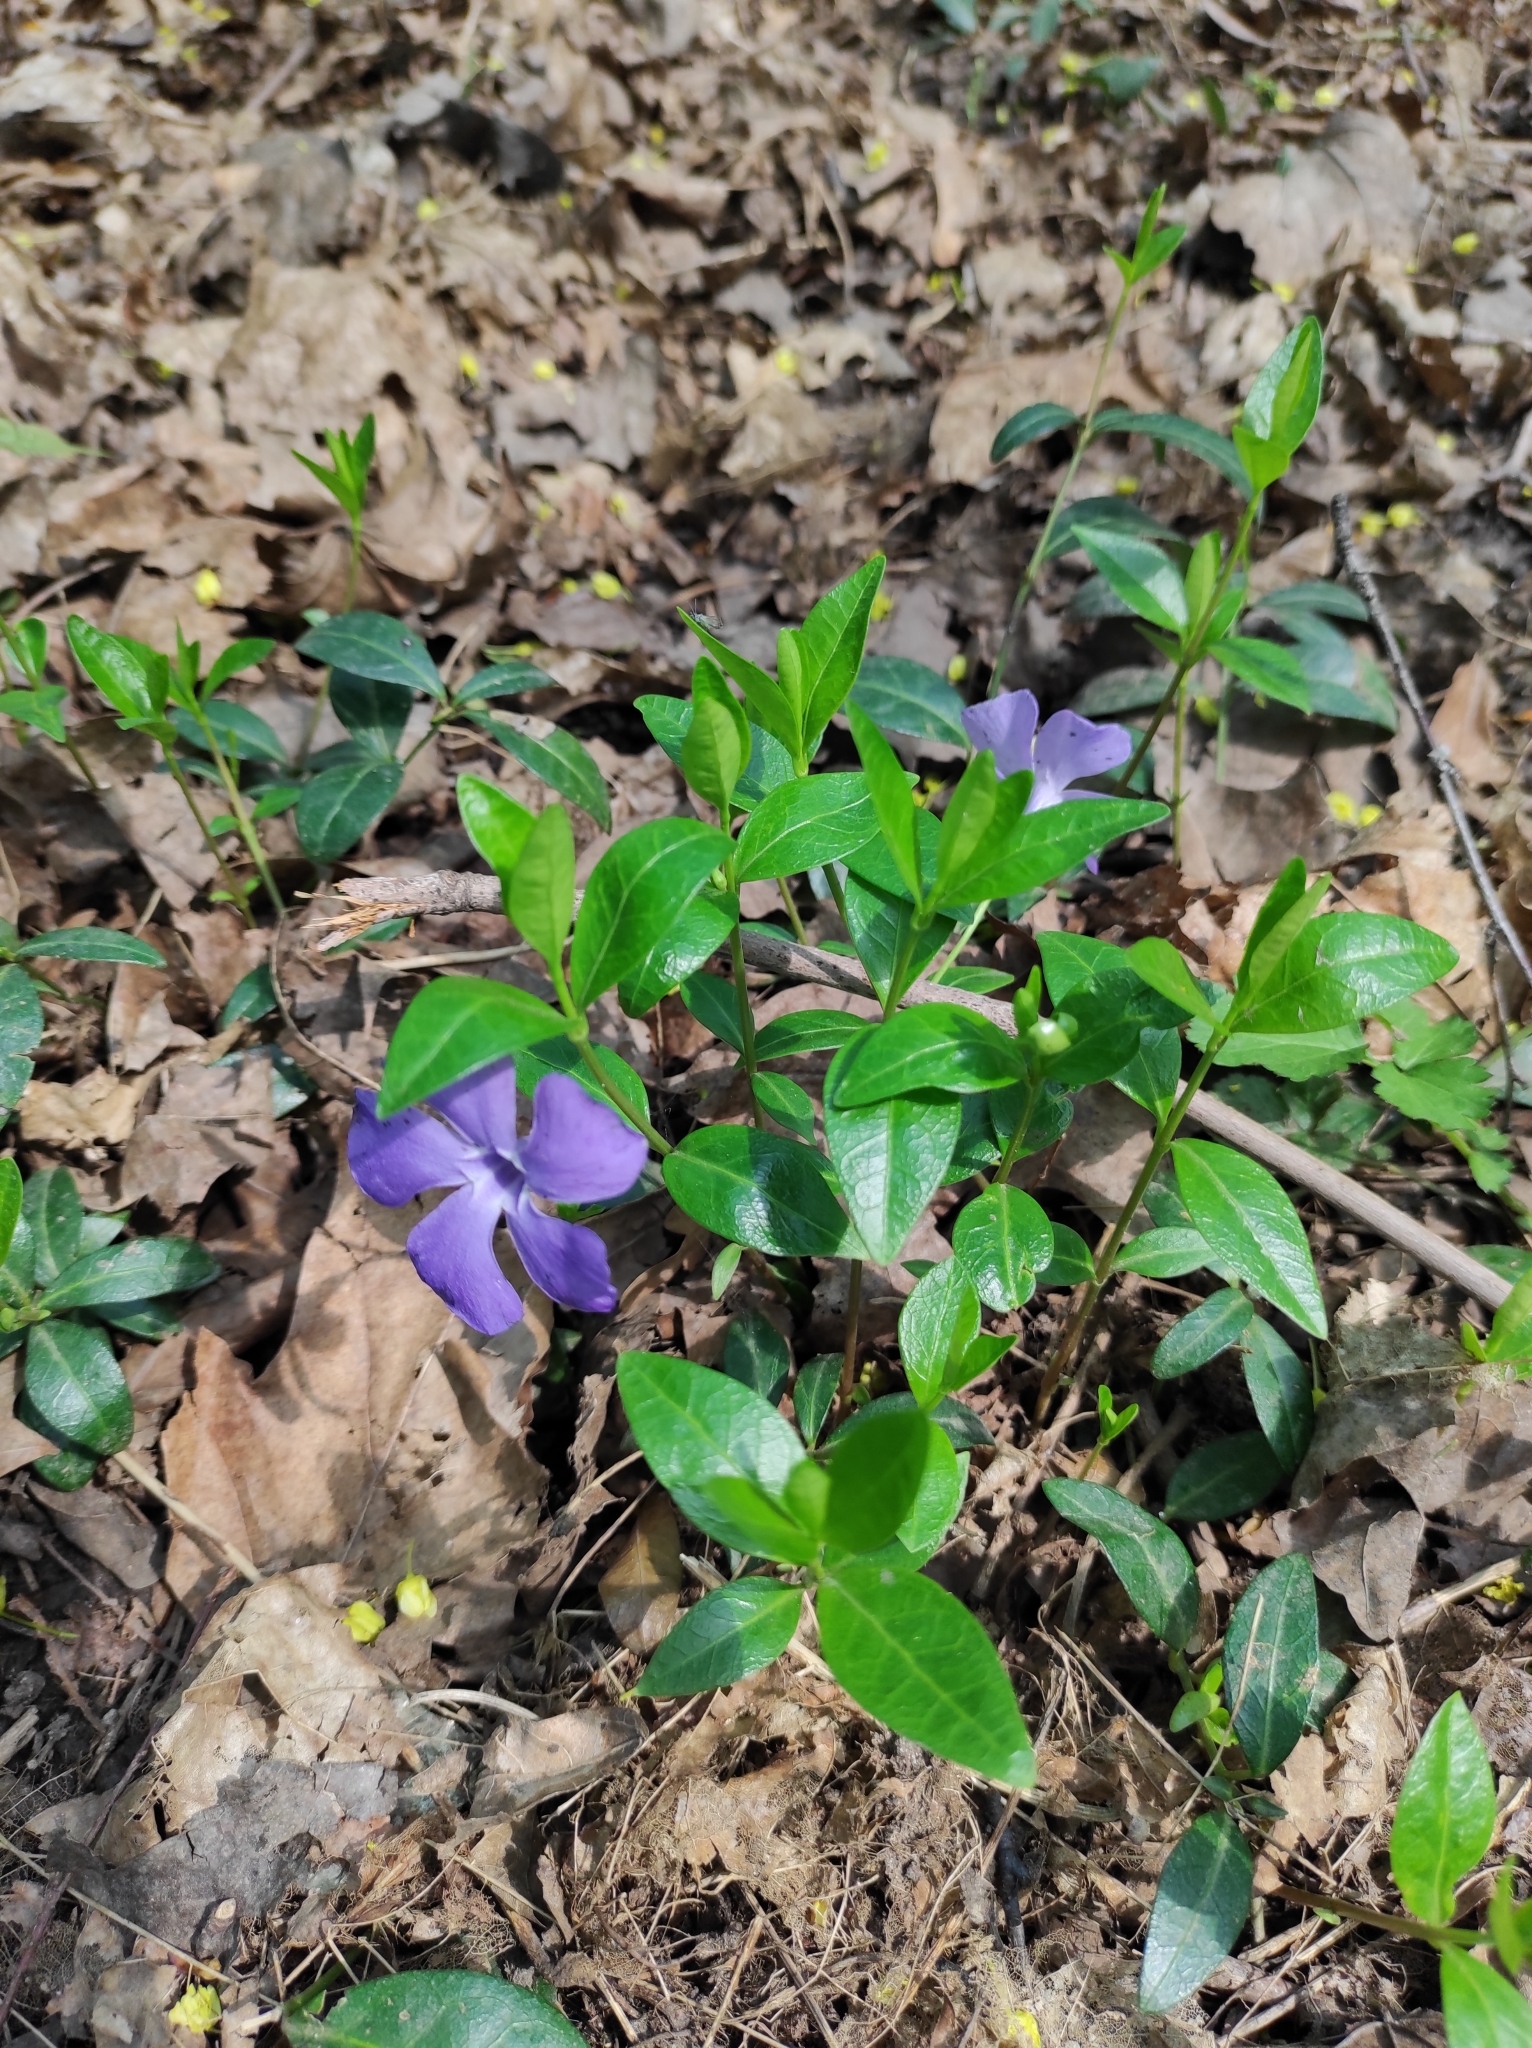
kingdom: Plantae
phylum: Tracheophyta
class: Magnoliopsida
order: Gentianales
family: Apocynaceae
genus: Vinca
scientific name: Vinca minor
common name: Lesser periwinkle
